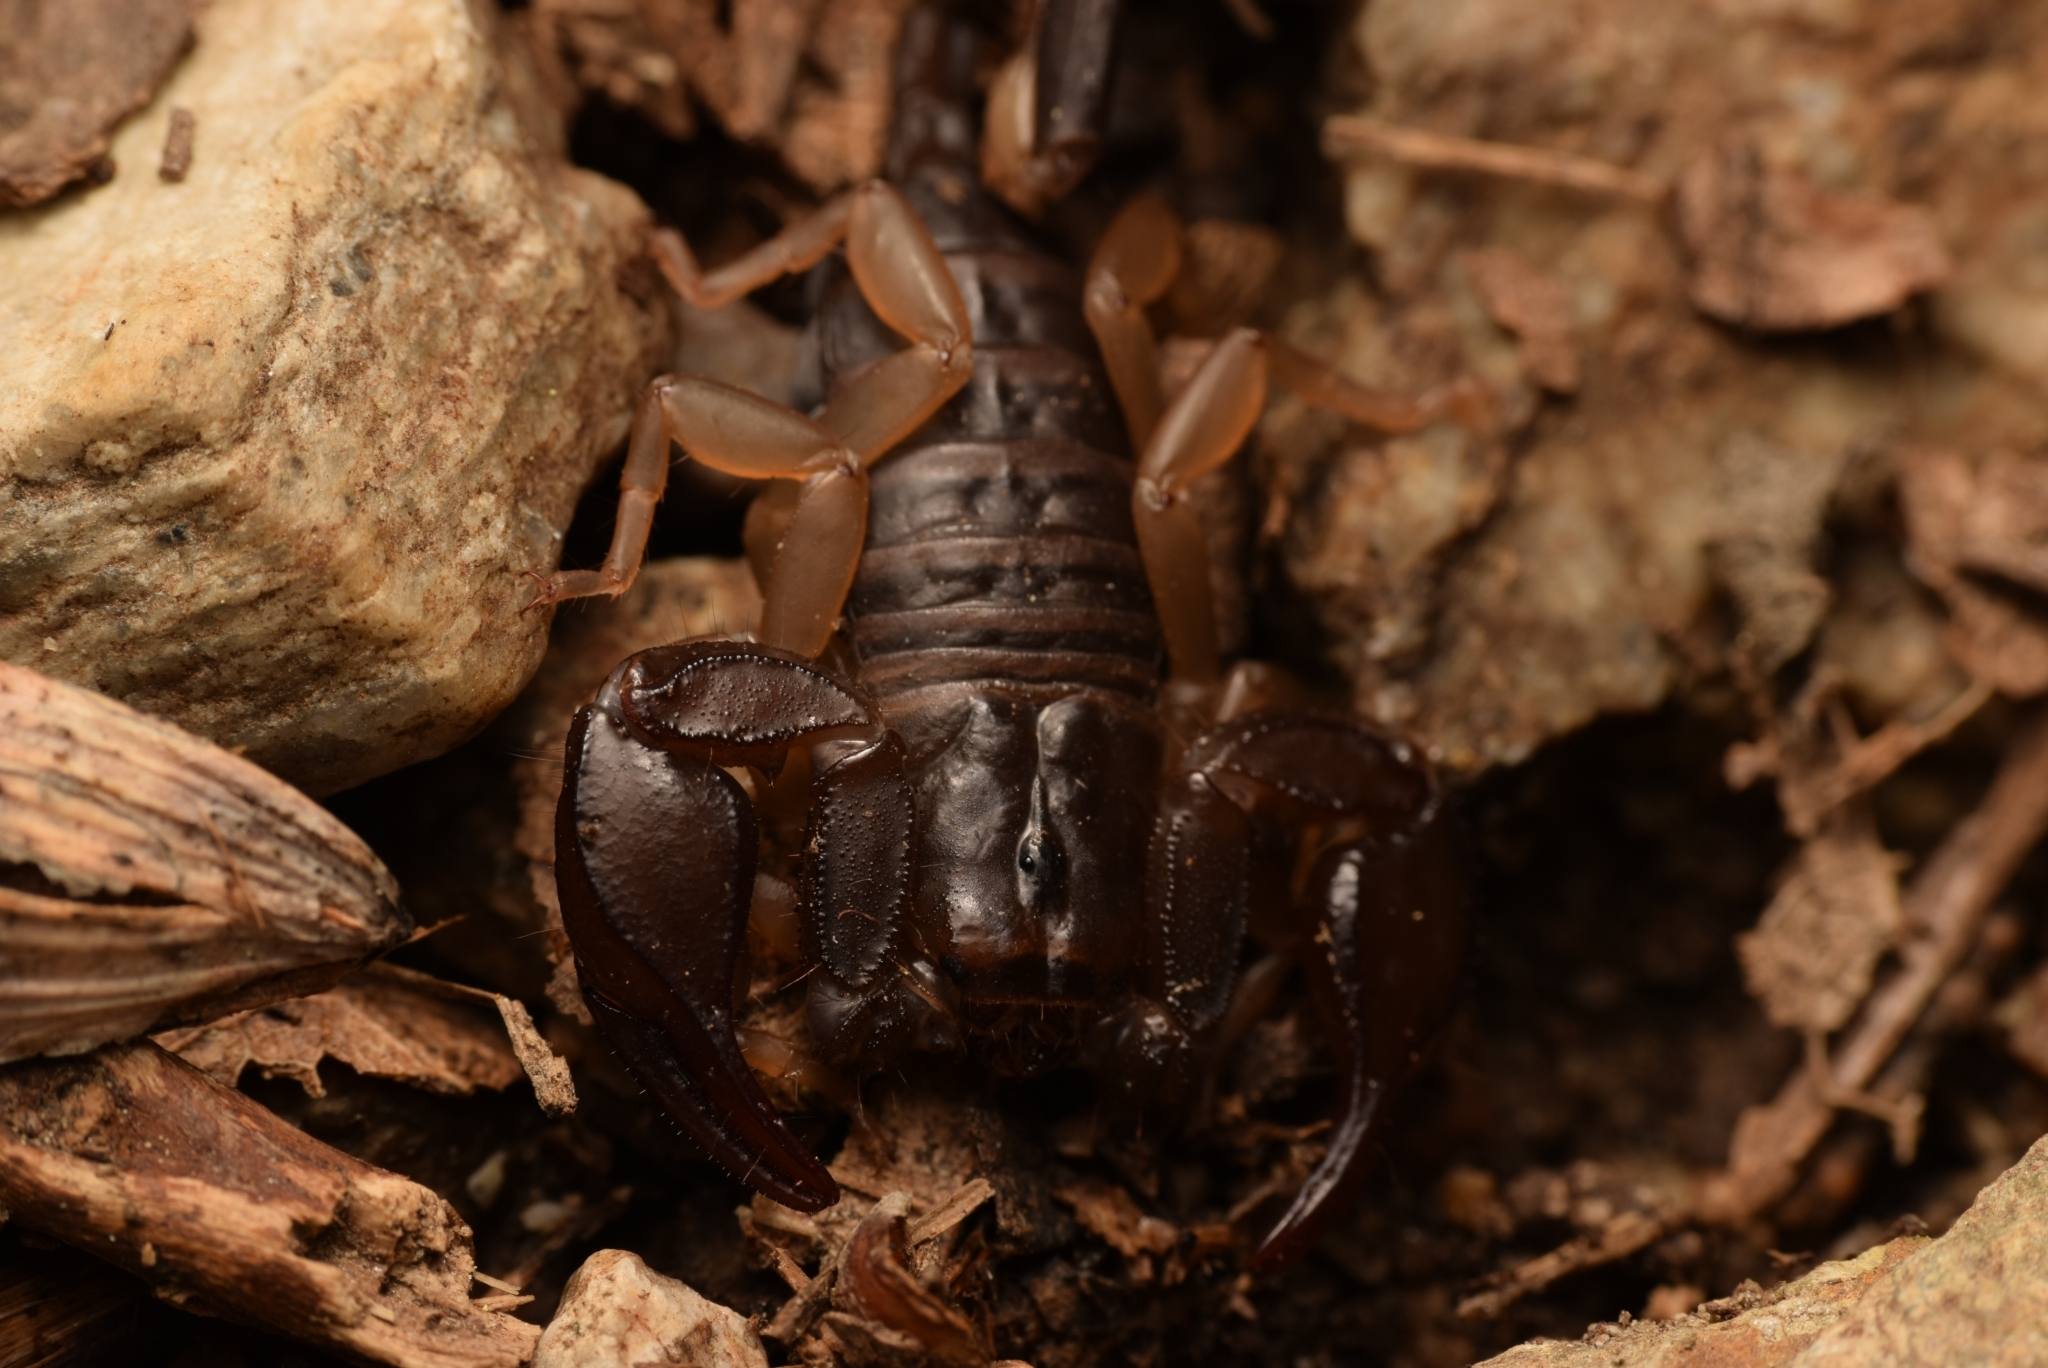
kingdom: Animalia
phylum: Arthropoda
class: Arachnida
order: Scorpiones
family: Euscorpiidae
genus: Euscorpius
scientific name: Euscorpius flavicaudis
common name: European yellow-tailed scorpion
